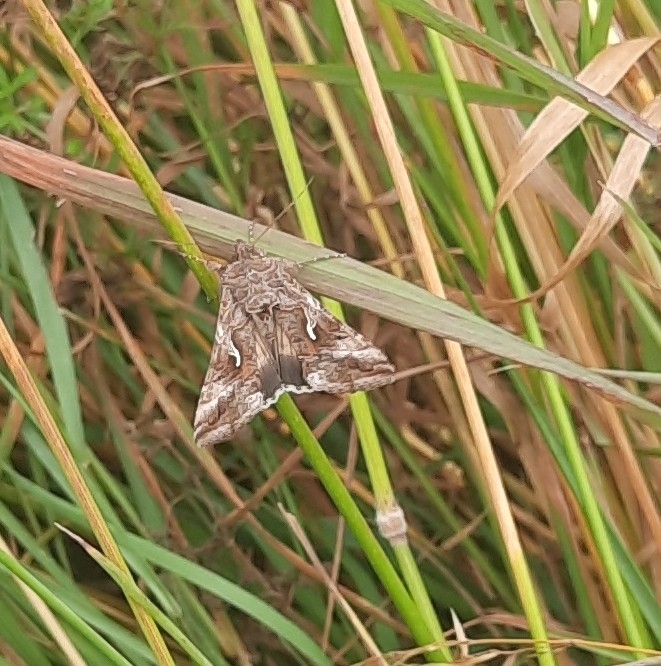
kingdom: Animalia
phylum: Arthropoda
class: Insecta
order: Lepidoptera
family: Noctuidae
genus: Autographa
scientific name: Autographa gamma
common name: Silver y
